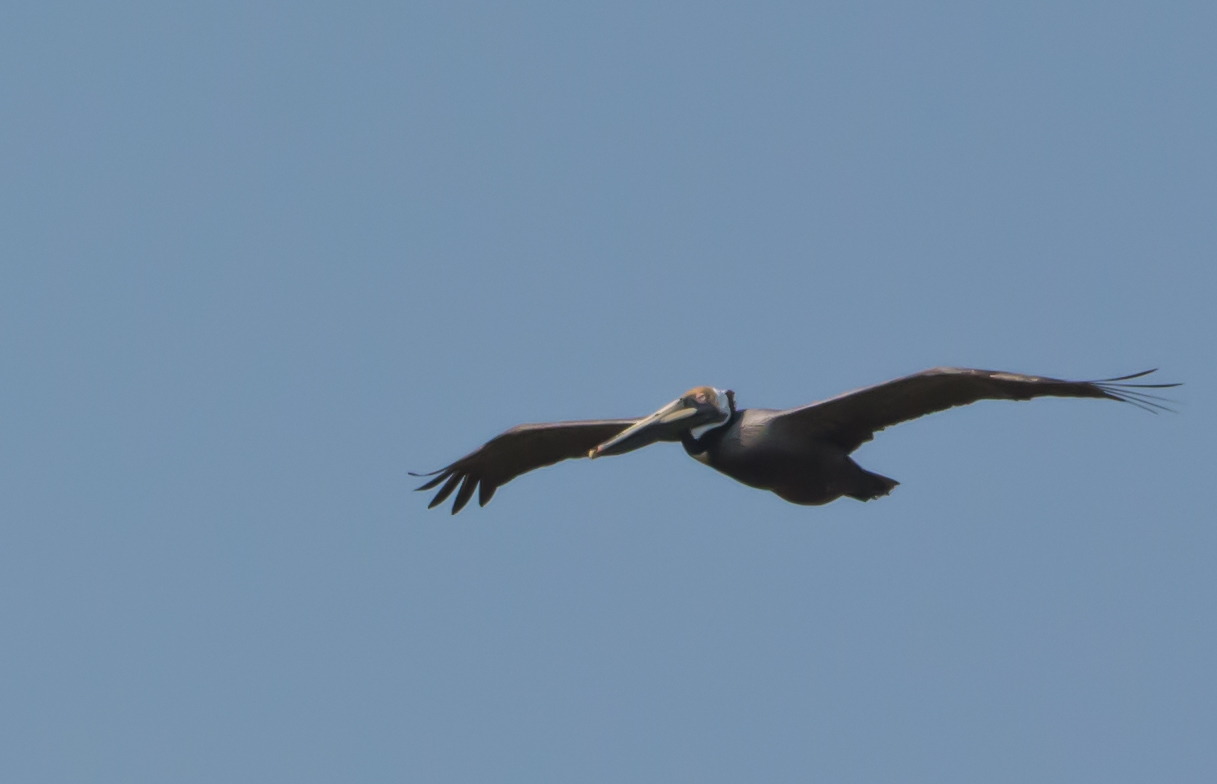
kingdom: Animalia
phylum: Chordata
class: Aves
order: Pelecaniformes
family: Pelecanidae
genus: Pelecanus
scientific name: Pelecanus occidentalis
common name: Brown pelican
